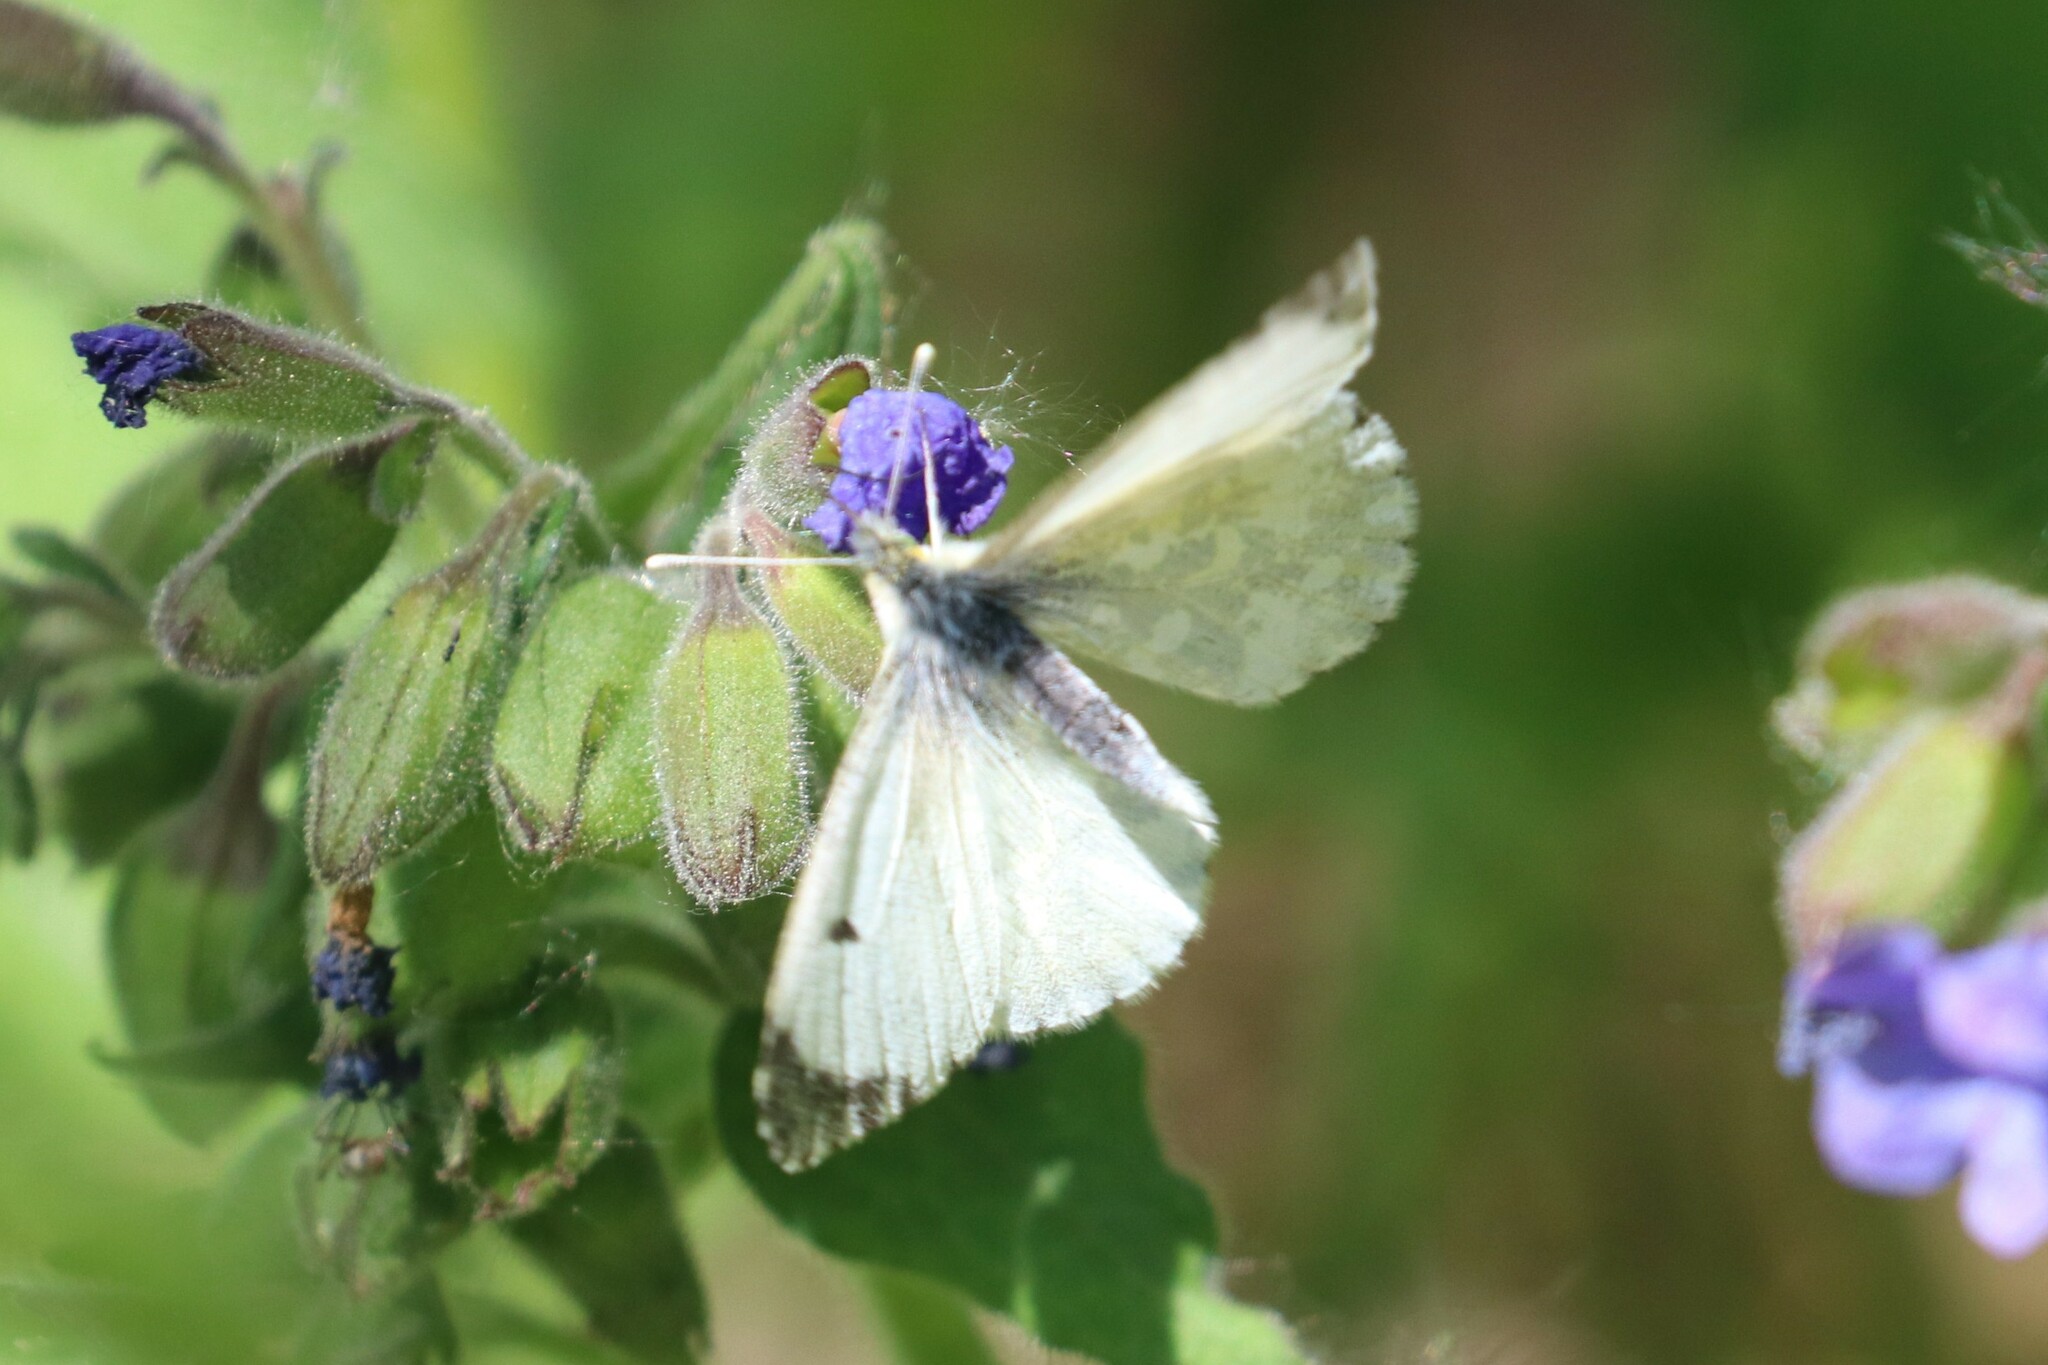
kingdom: Animalia
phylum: Arthropoda
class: Insecta
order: Lepidoptera
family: Pieridae
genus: Anthocharis
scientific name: Anthocharis cardamines
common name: Orange-tip
